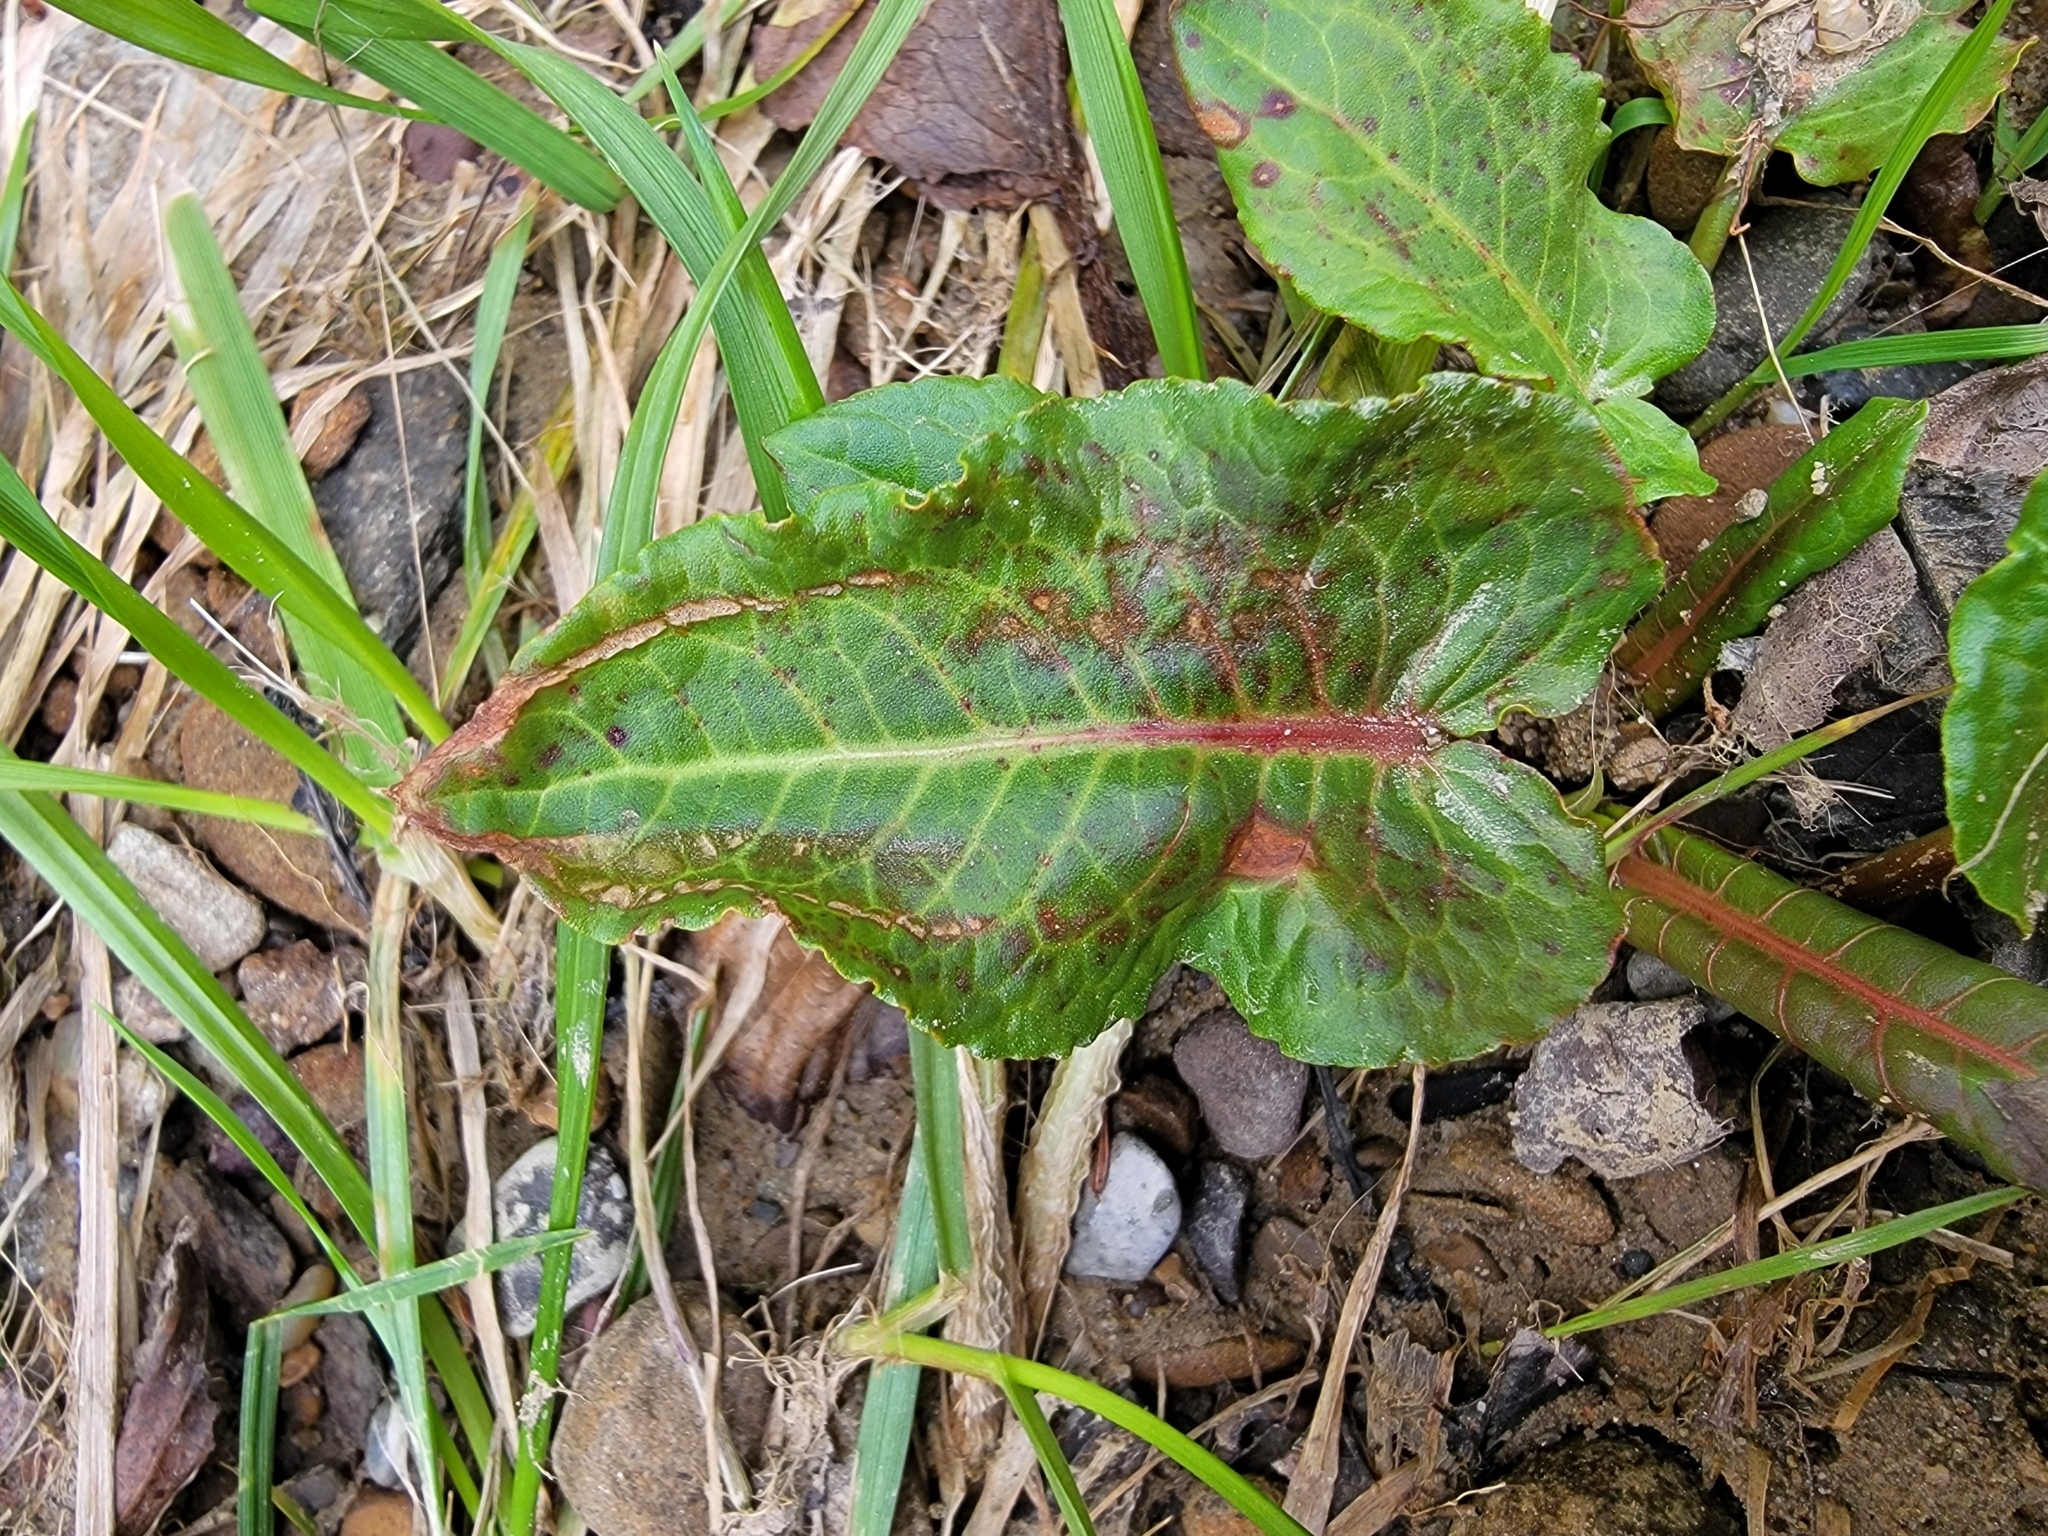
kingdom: Plantae
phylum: Tracheophyta
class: Magnoliopsida
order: Caryophyllales
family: Polygonaceae
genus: Rumex
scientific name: Rumex obtusifolius
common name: Bitter dock
